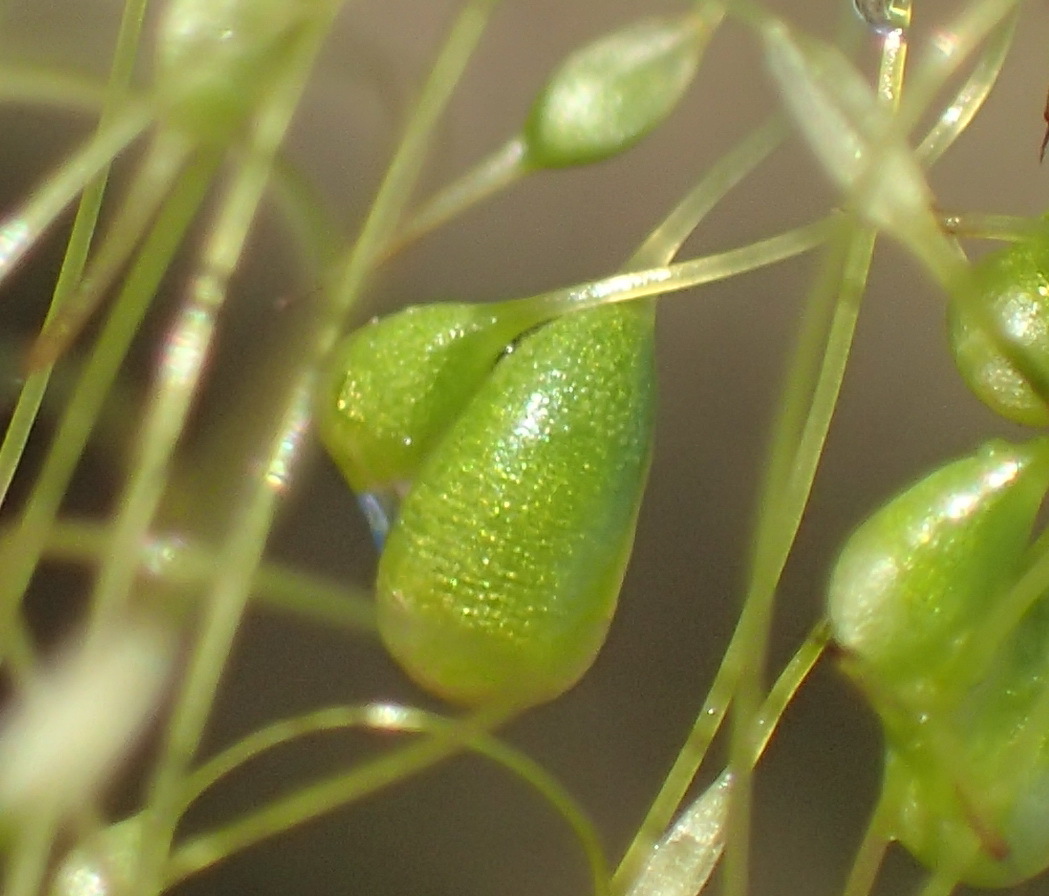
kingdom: Plantae
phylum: Bryophyta
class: Bryopsida
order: Funariales
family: Funariaceae
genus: Funaria
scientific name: Funaria hygrometrica
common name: Common cord moss
